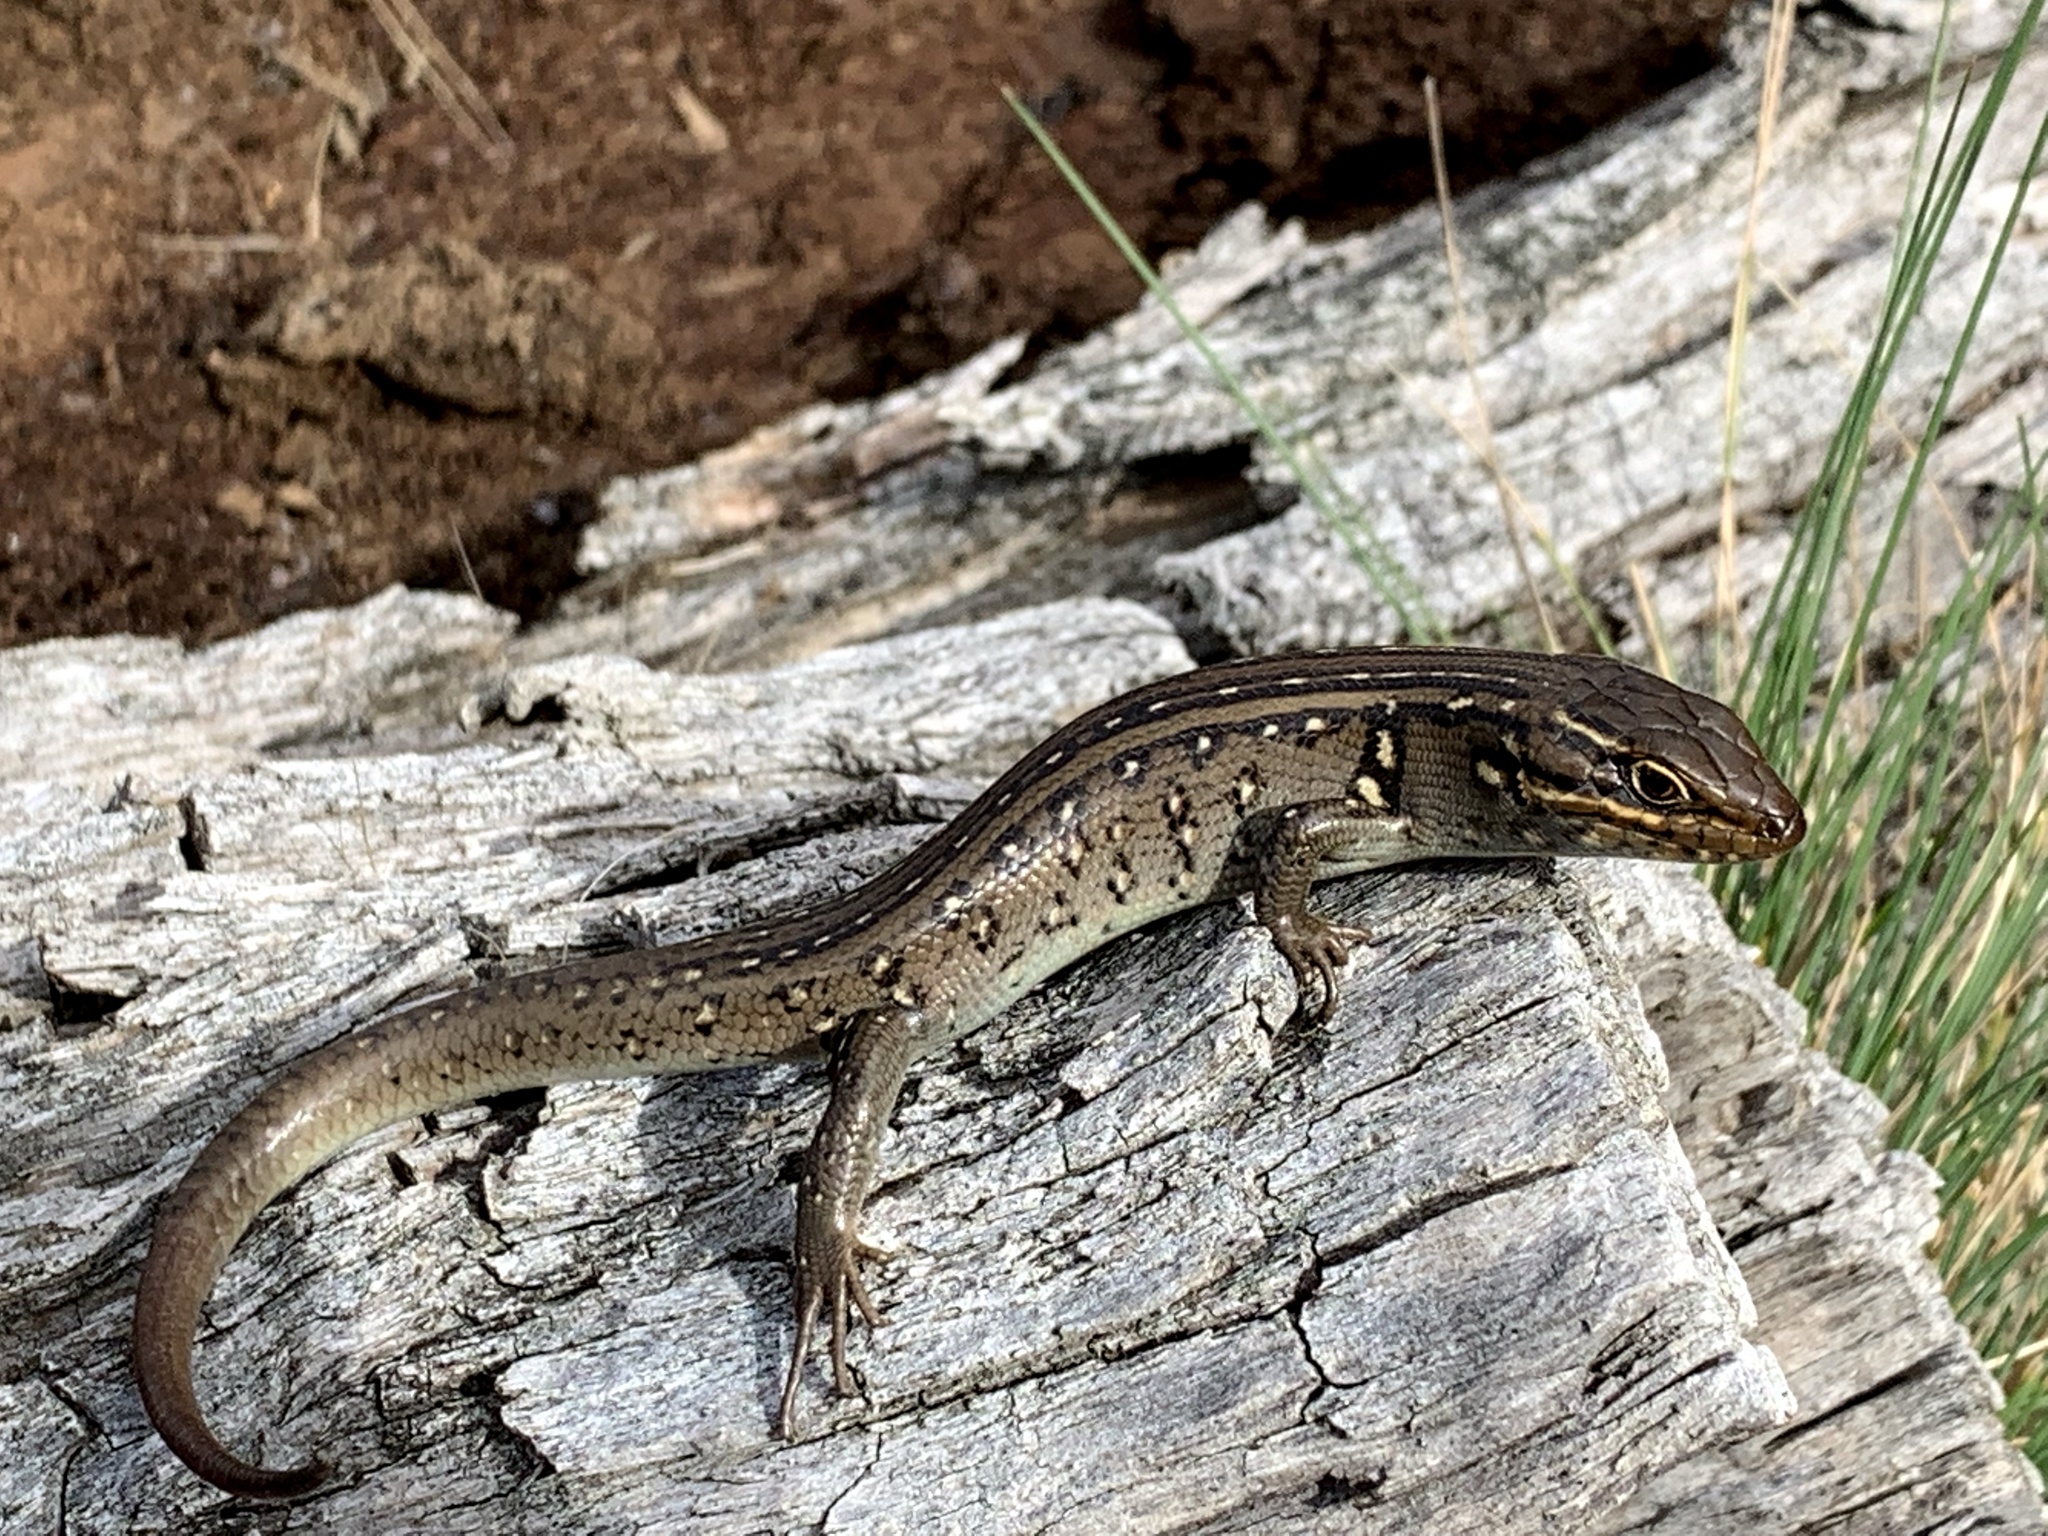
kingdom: Animalia
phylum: Chordata
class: Squamata
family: Scincidae
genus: Liopholis
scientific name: Liopholis whitii
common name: White's rock-skink
